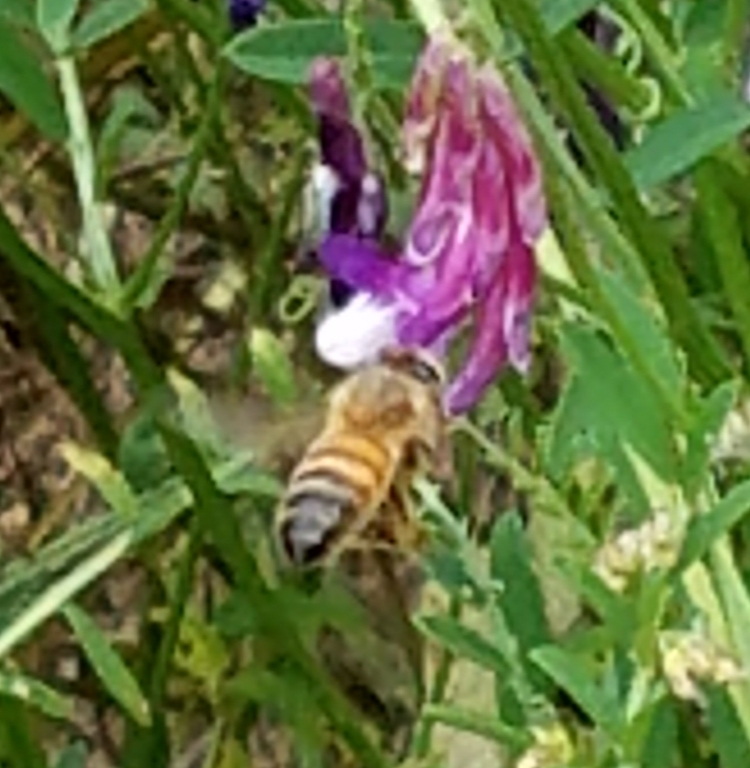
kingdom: Animalia
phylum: Arthropoda
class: Insecta
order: Hymenoptera
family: Apidae
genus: Apis
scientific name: Apis mellifera
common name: Honey bee
